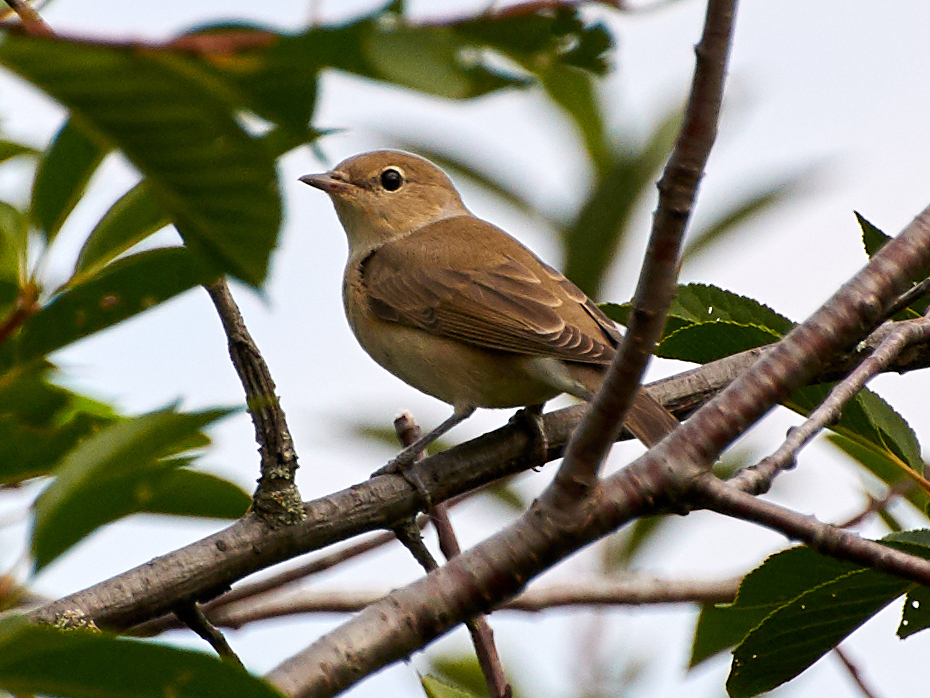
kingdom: Animalia
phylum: Chordata
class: Aves
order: Passeriformes
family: Sylviidae
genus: Sylvia
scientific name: Sylvia borin
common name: Garden warbler
